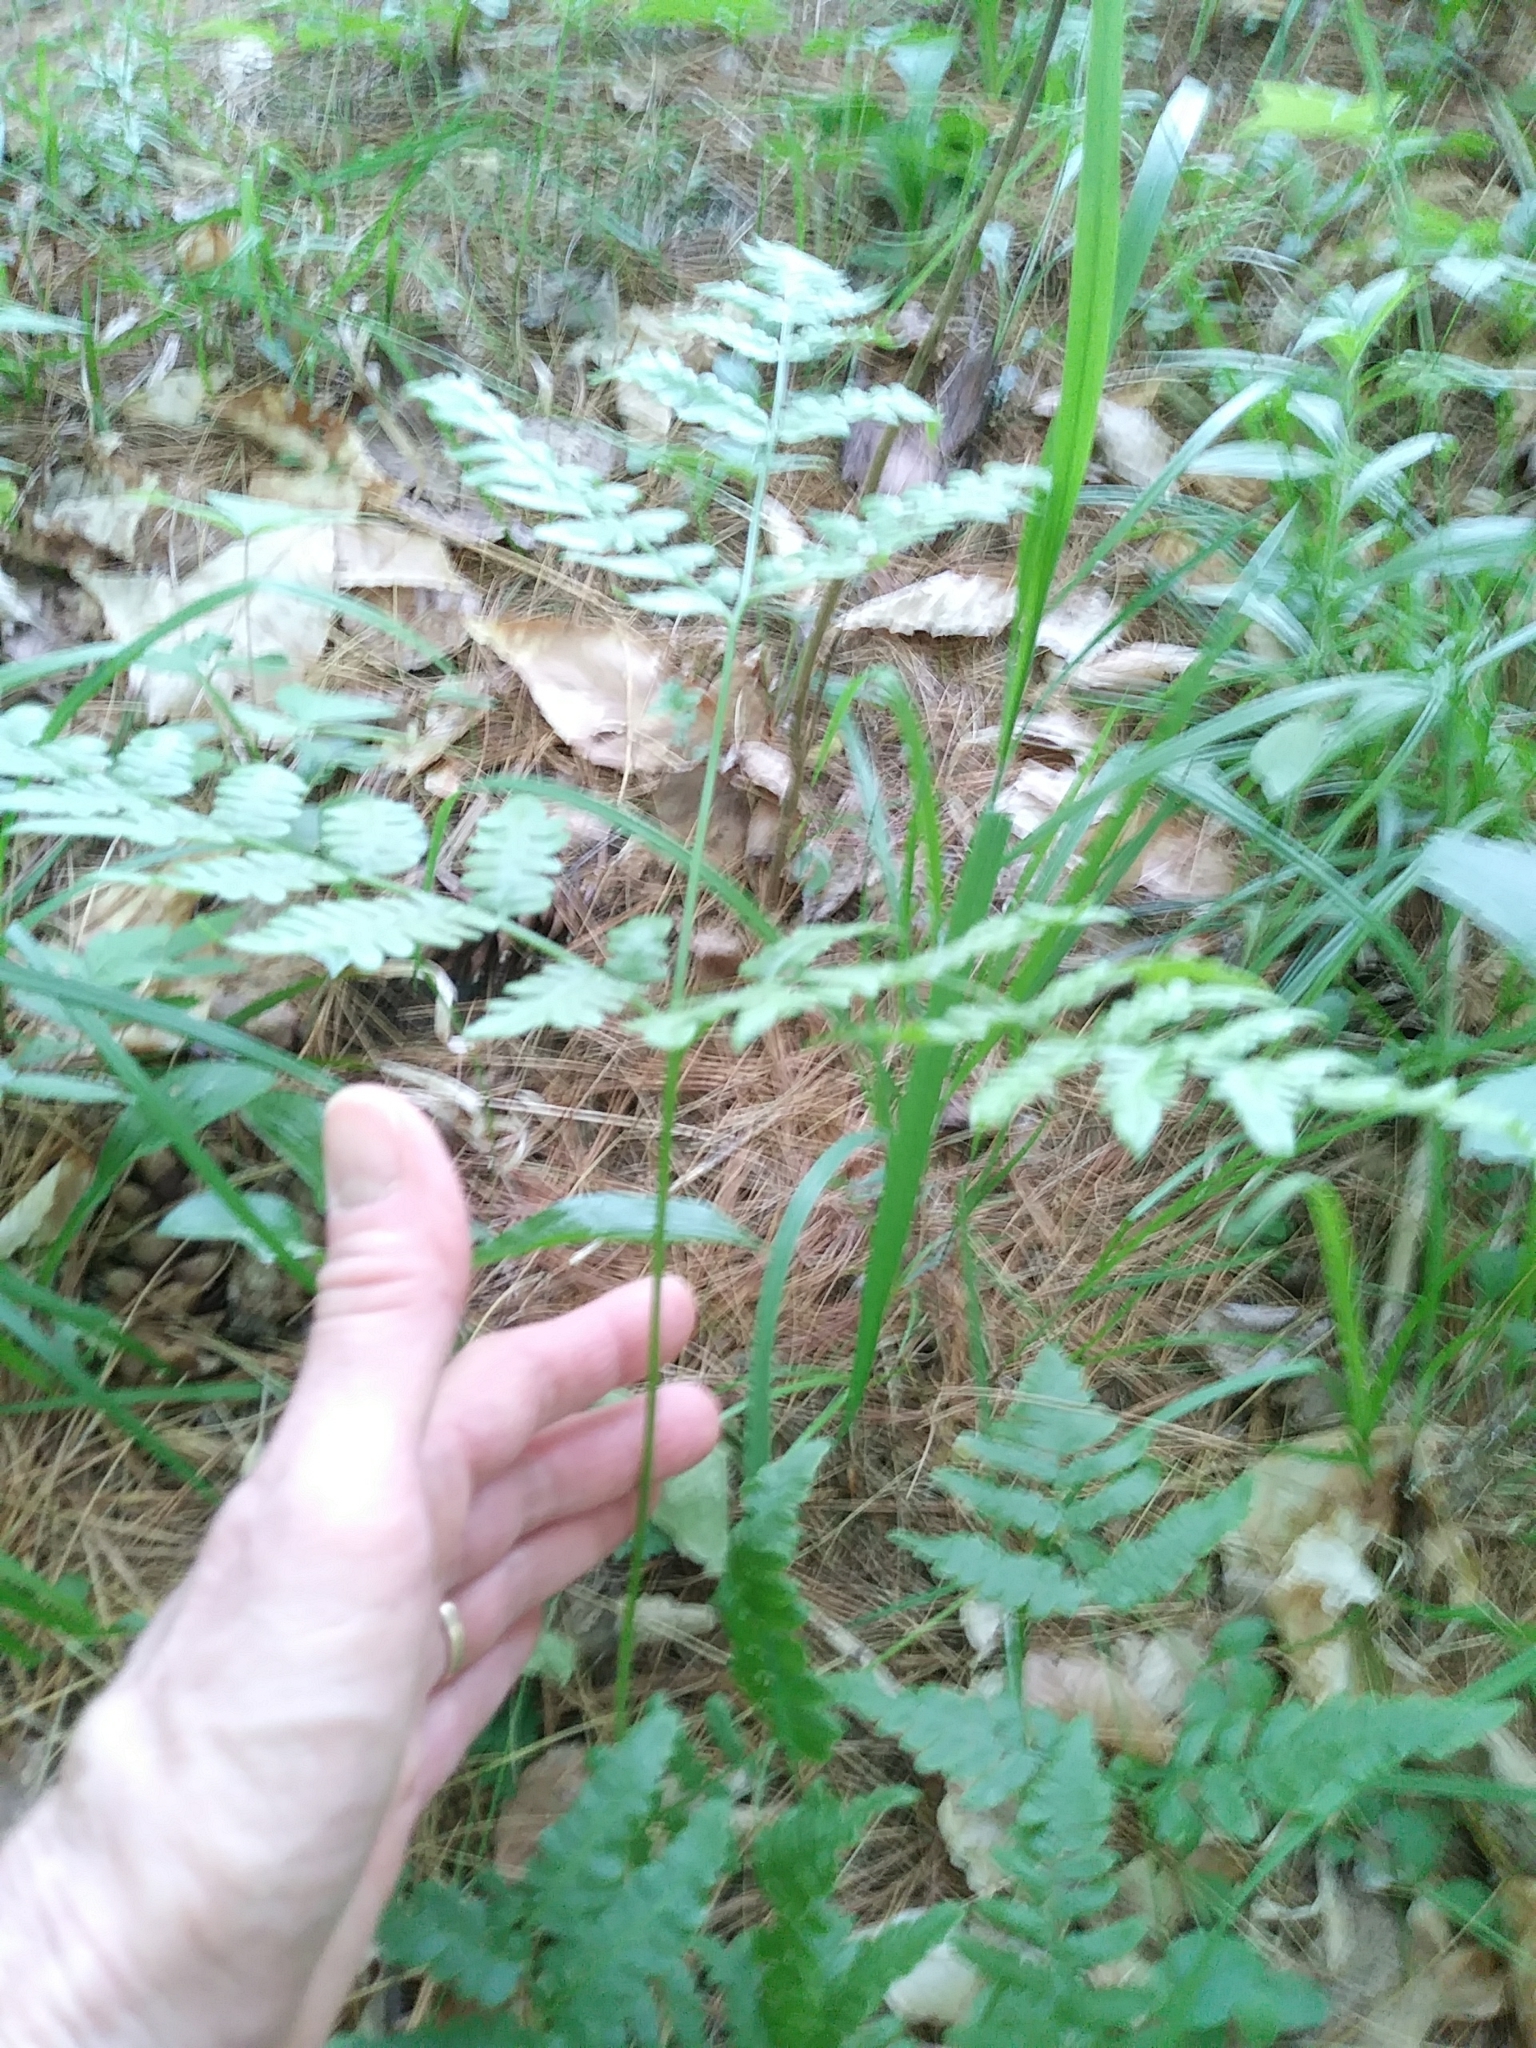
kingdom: Plantae
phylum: Tracheophyta
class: Polypodiopsida
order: Polypodiales
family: Dennstaedtiaceae
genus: Pteridium
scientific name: Pteridium aquilinum
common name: Bracken
